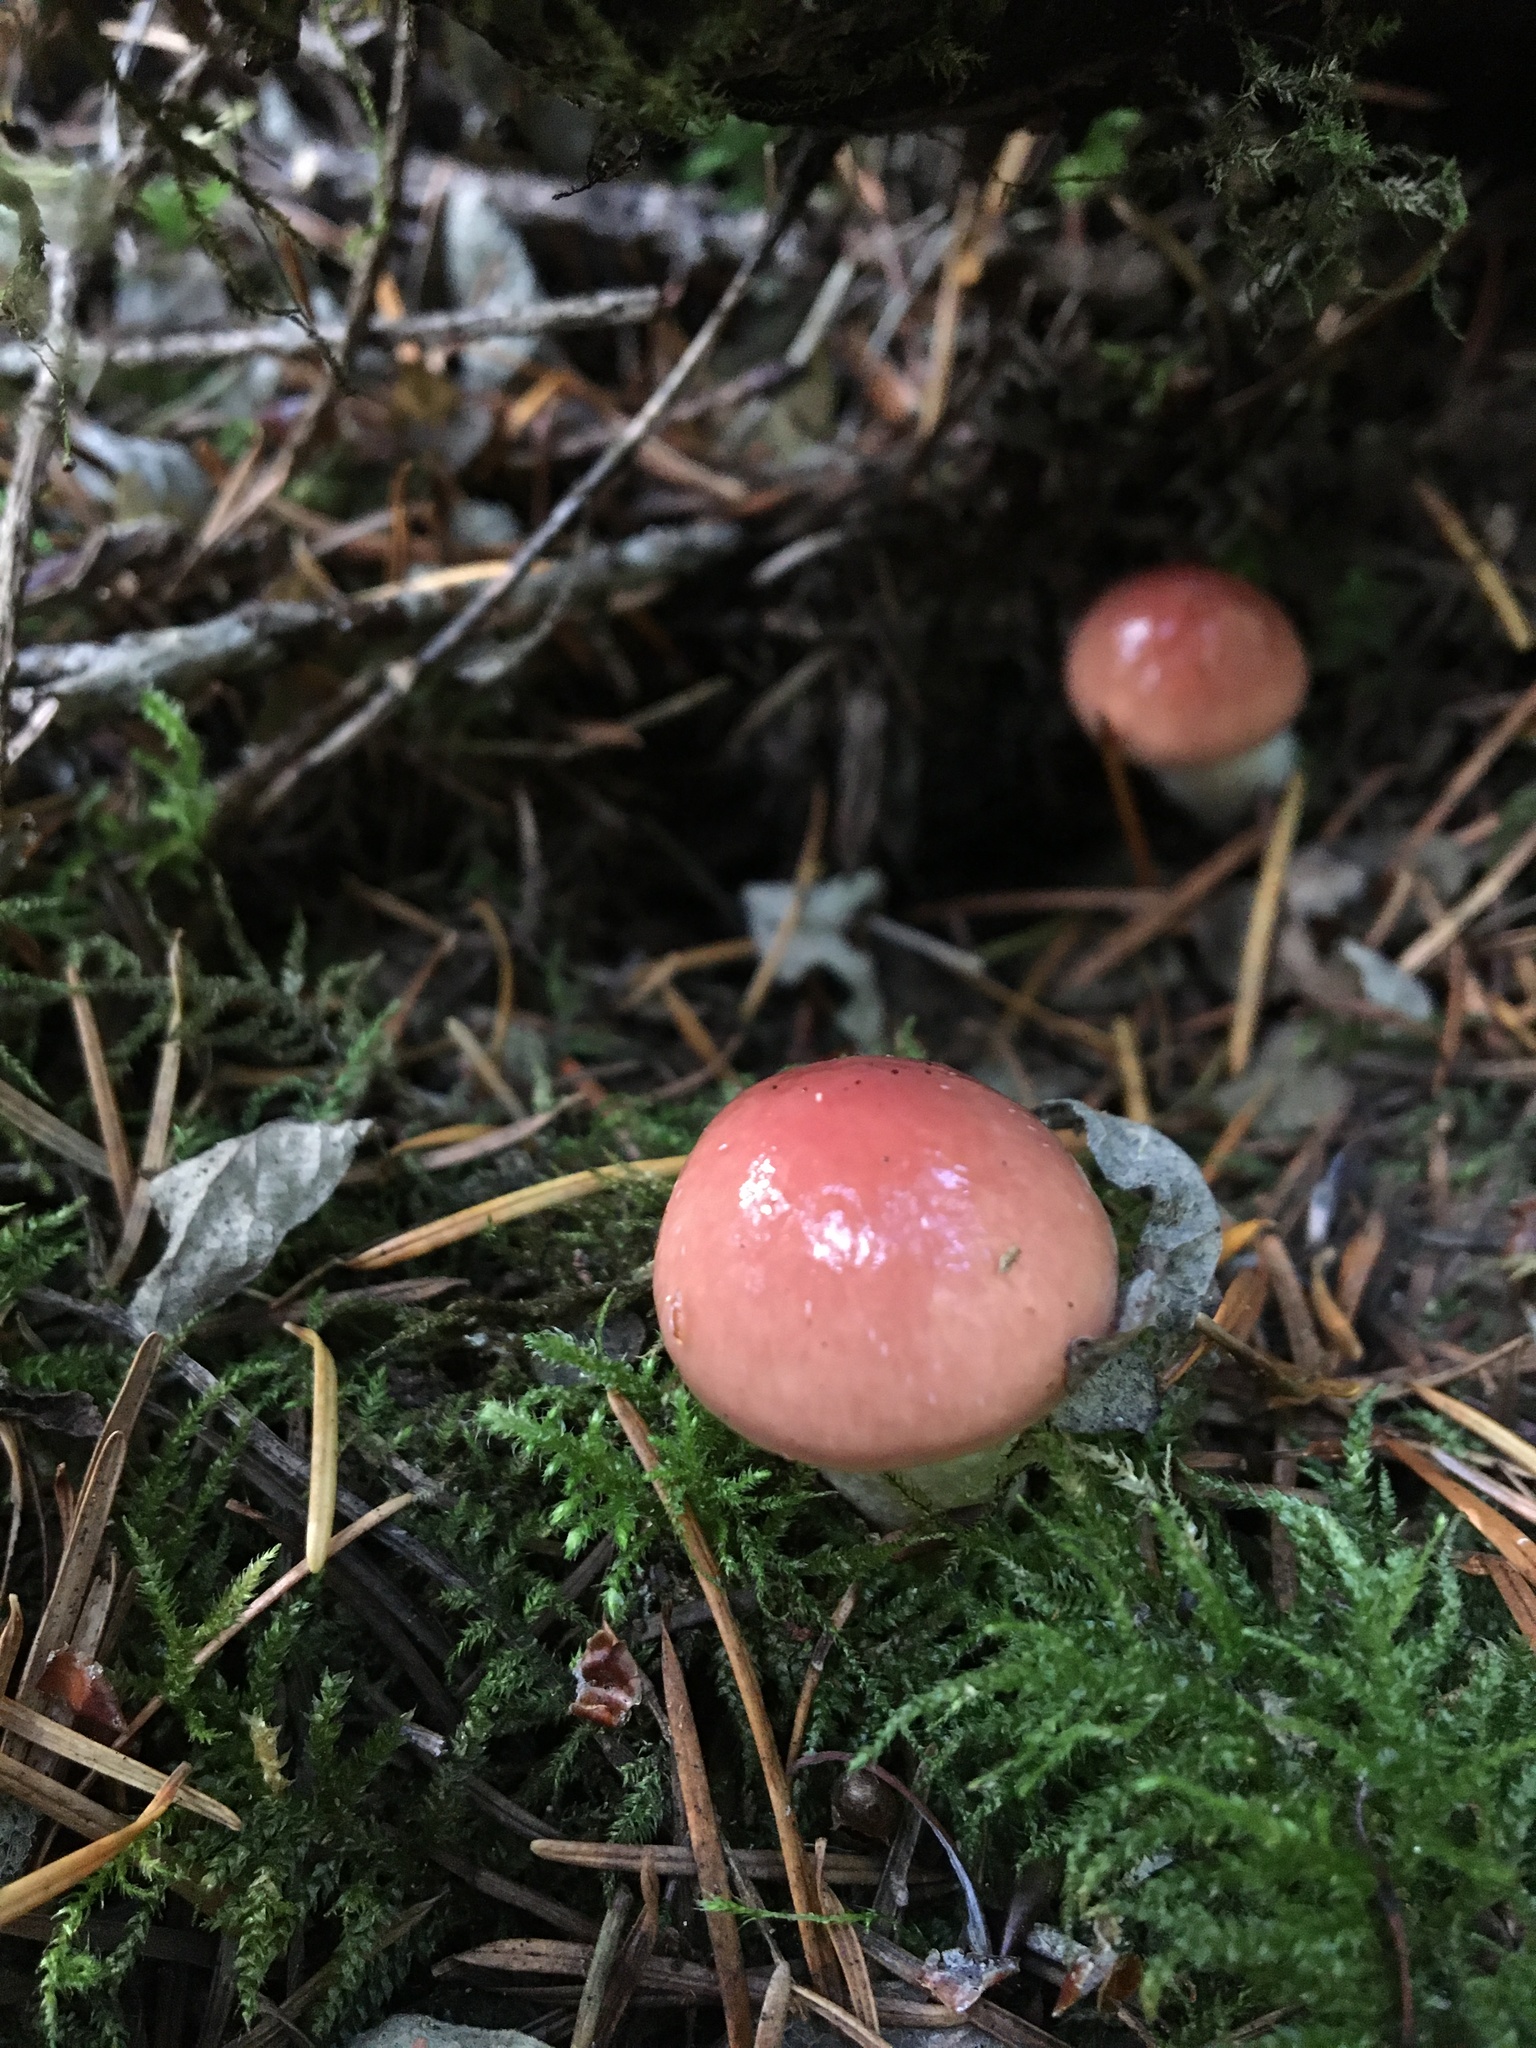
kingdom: Fungi
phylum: Basidiomycota
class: Agaricomycetes
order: Boletales
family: Gomphidiaceae
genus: Gomphidius
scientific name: Gomphidius subroseus
